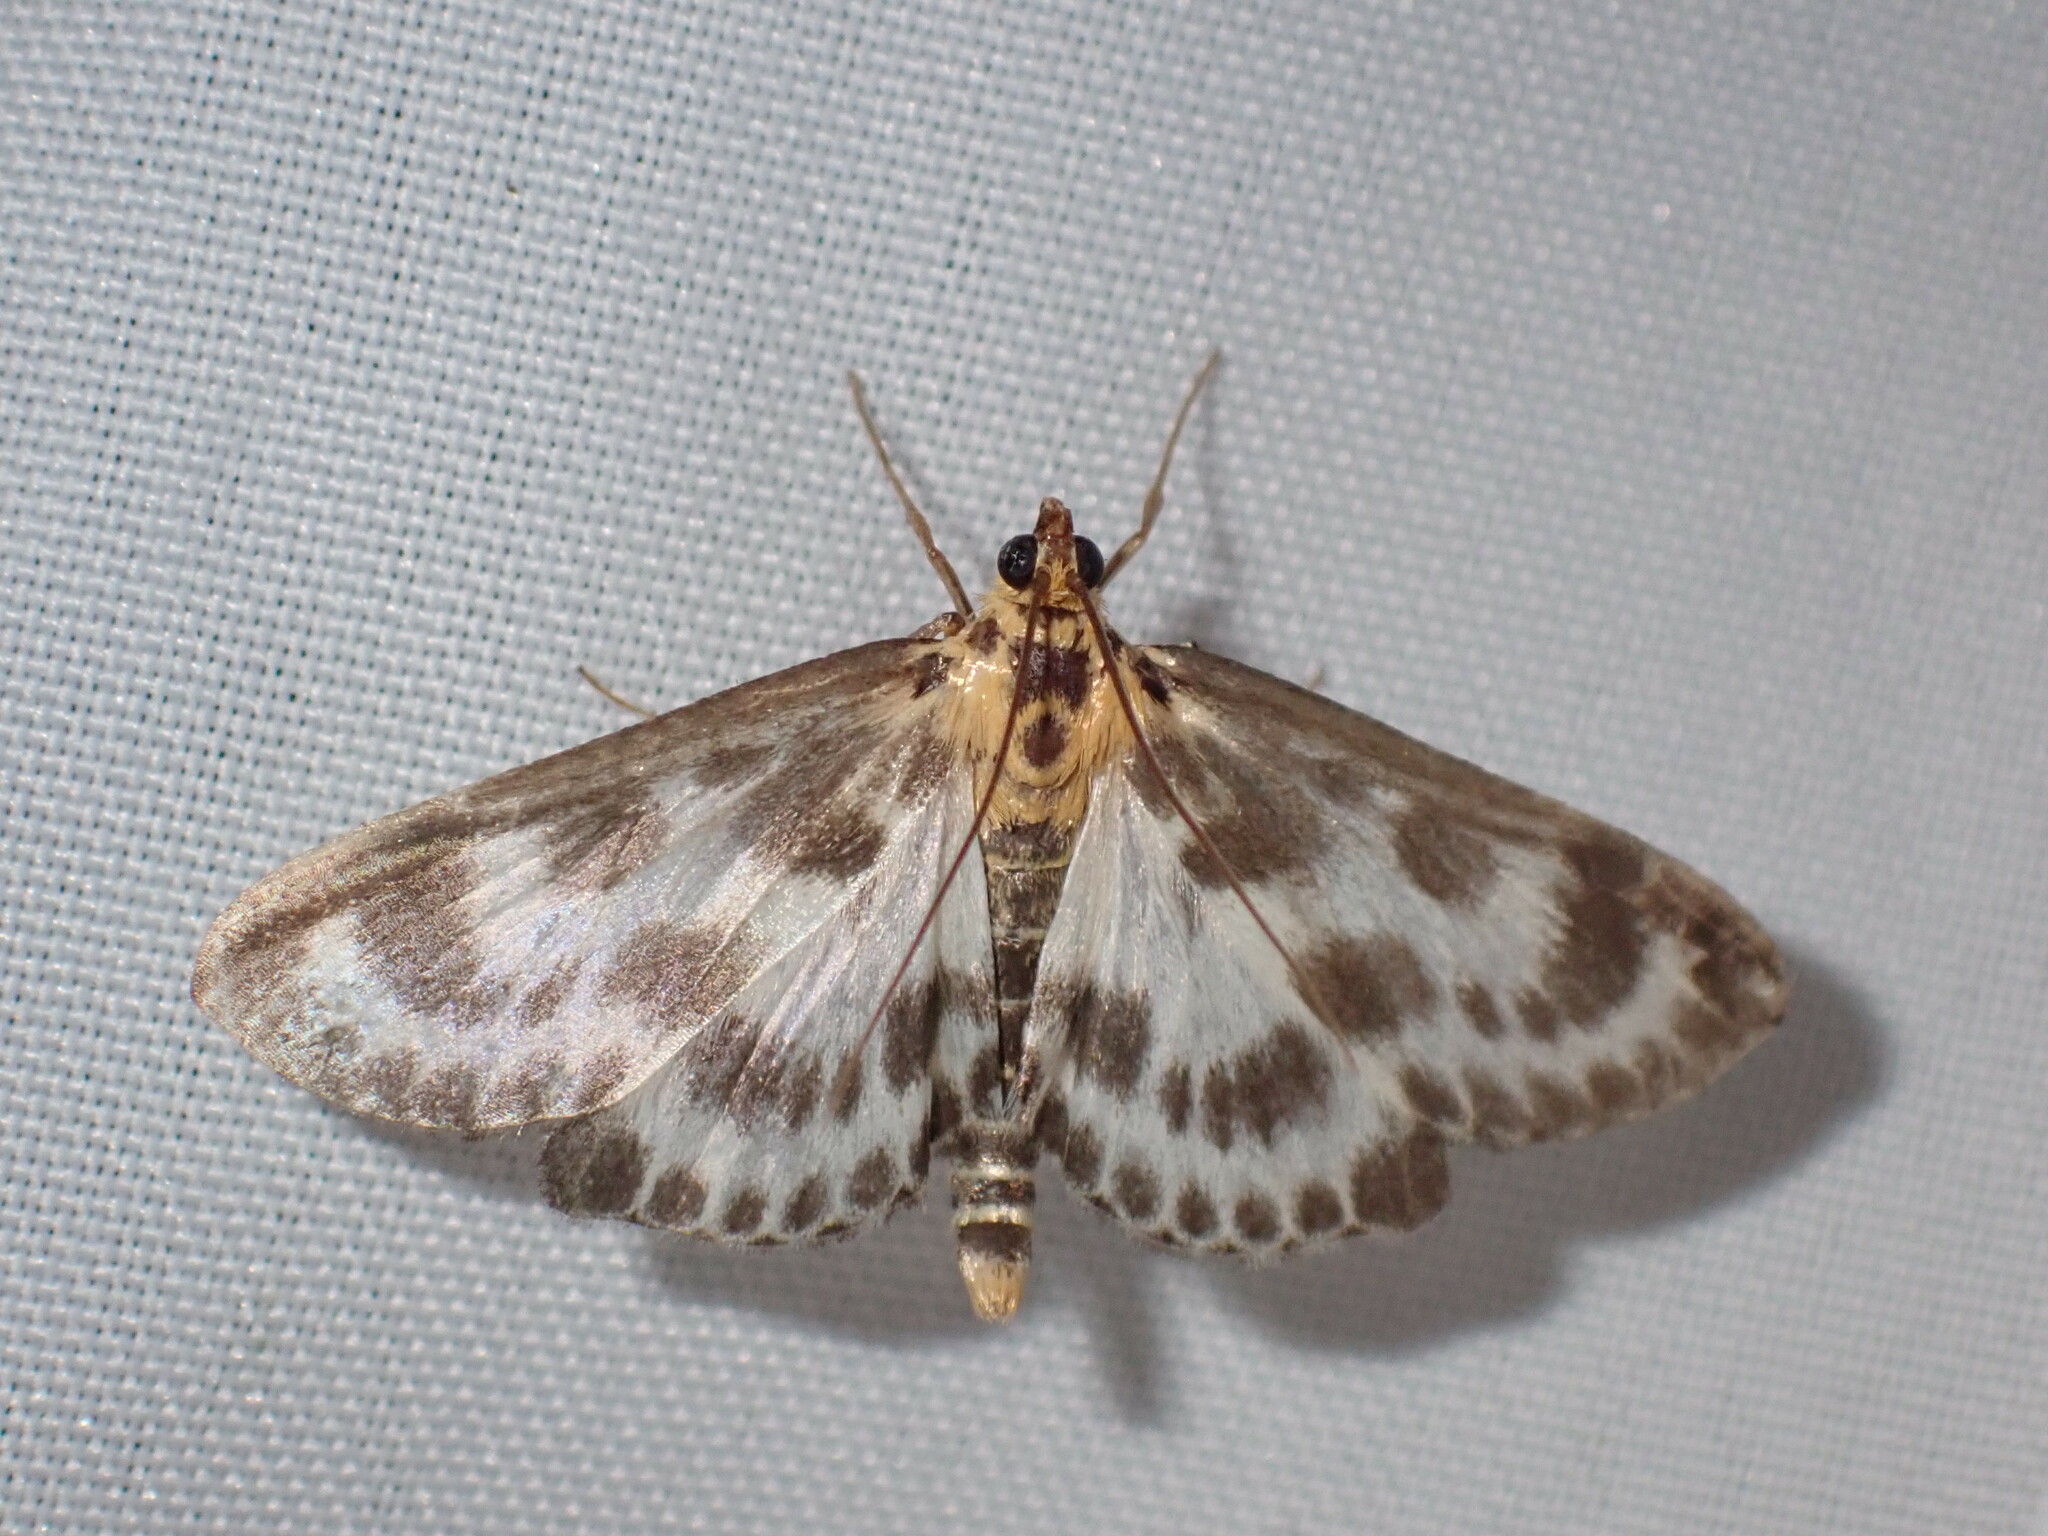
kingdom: Animalia
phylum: Arthropoda
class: Insecta
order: Lepidoptera
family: Crambidae
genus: Anania
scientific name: Anania hortulata
